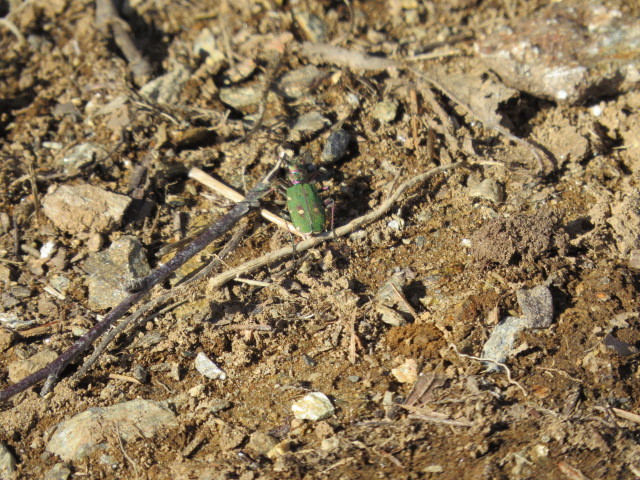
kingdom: Animalia
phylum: Arthropoda
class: Insecta
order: Coleoptera
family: Carabidae
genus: Cicindela
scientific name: Cicindela campestris
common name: Common tiger beetle
